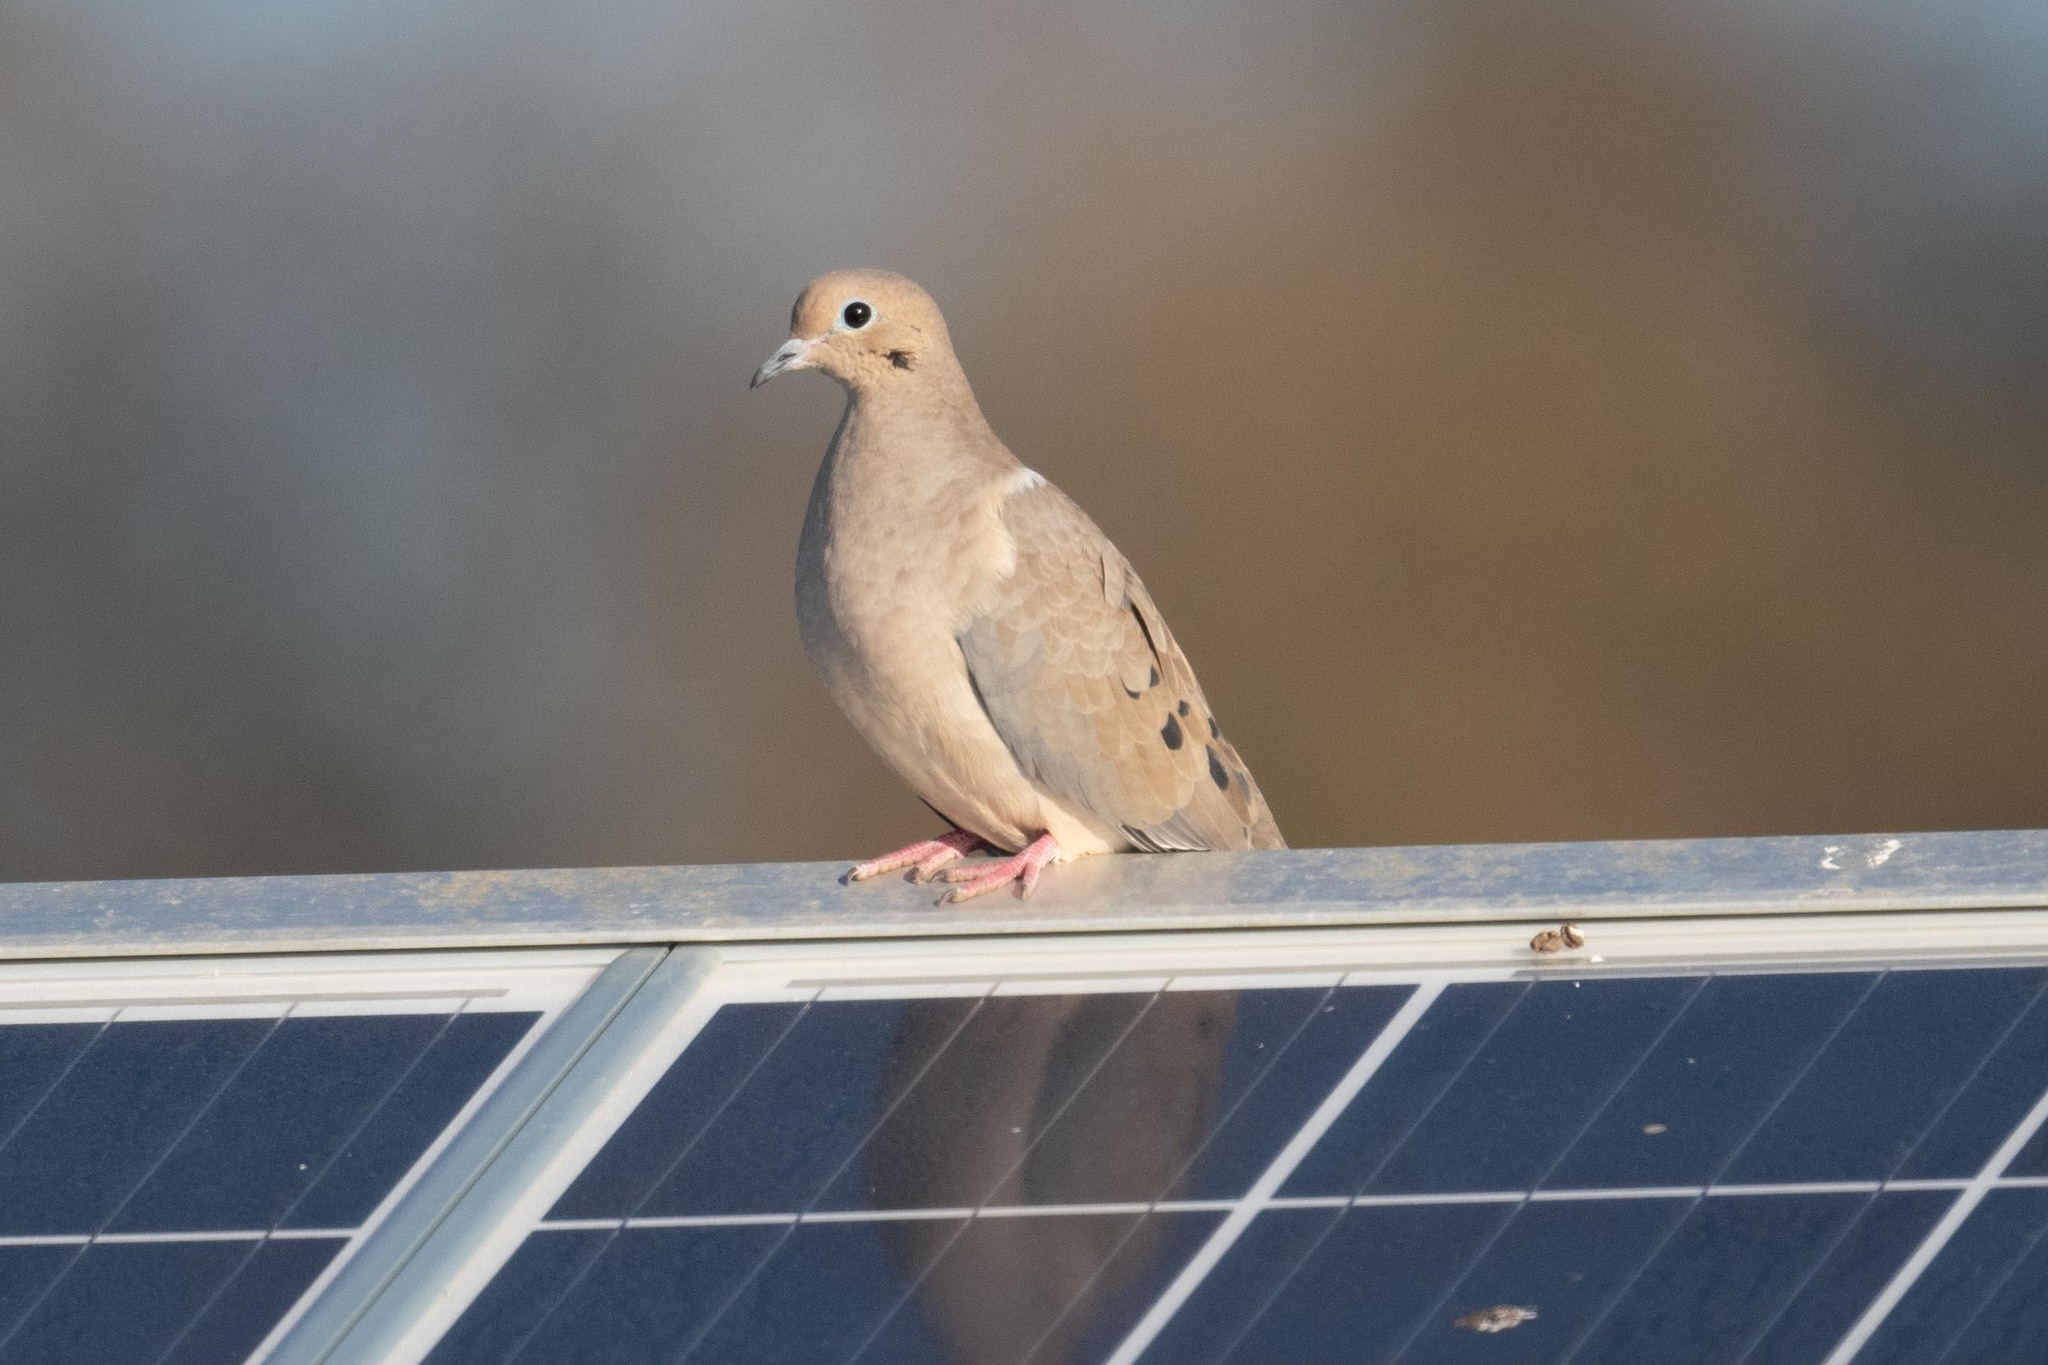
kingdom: Animalia
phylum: Chordata
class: Aves
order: Columbiformes
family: Columbidae
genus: Zenaida
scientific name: Zenaida macroura
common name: Mourning dove
